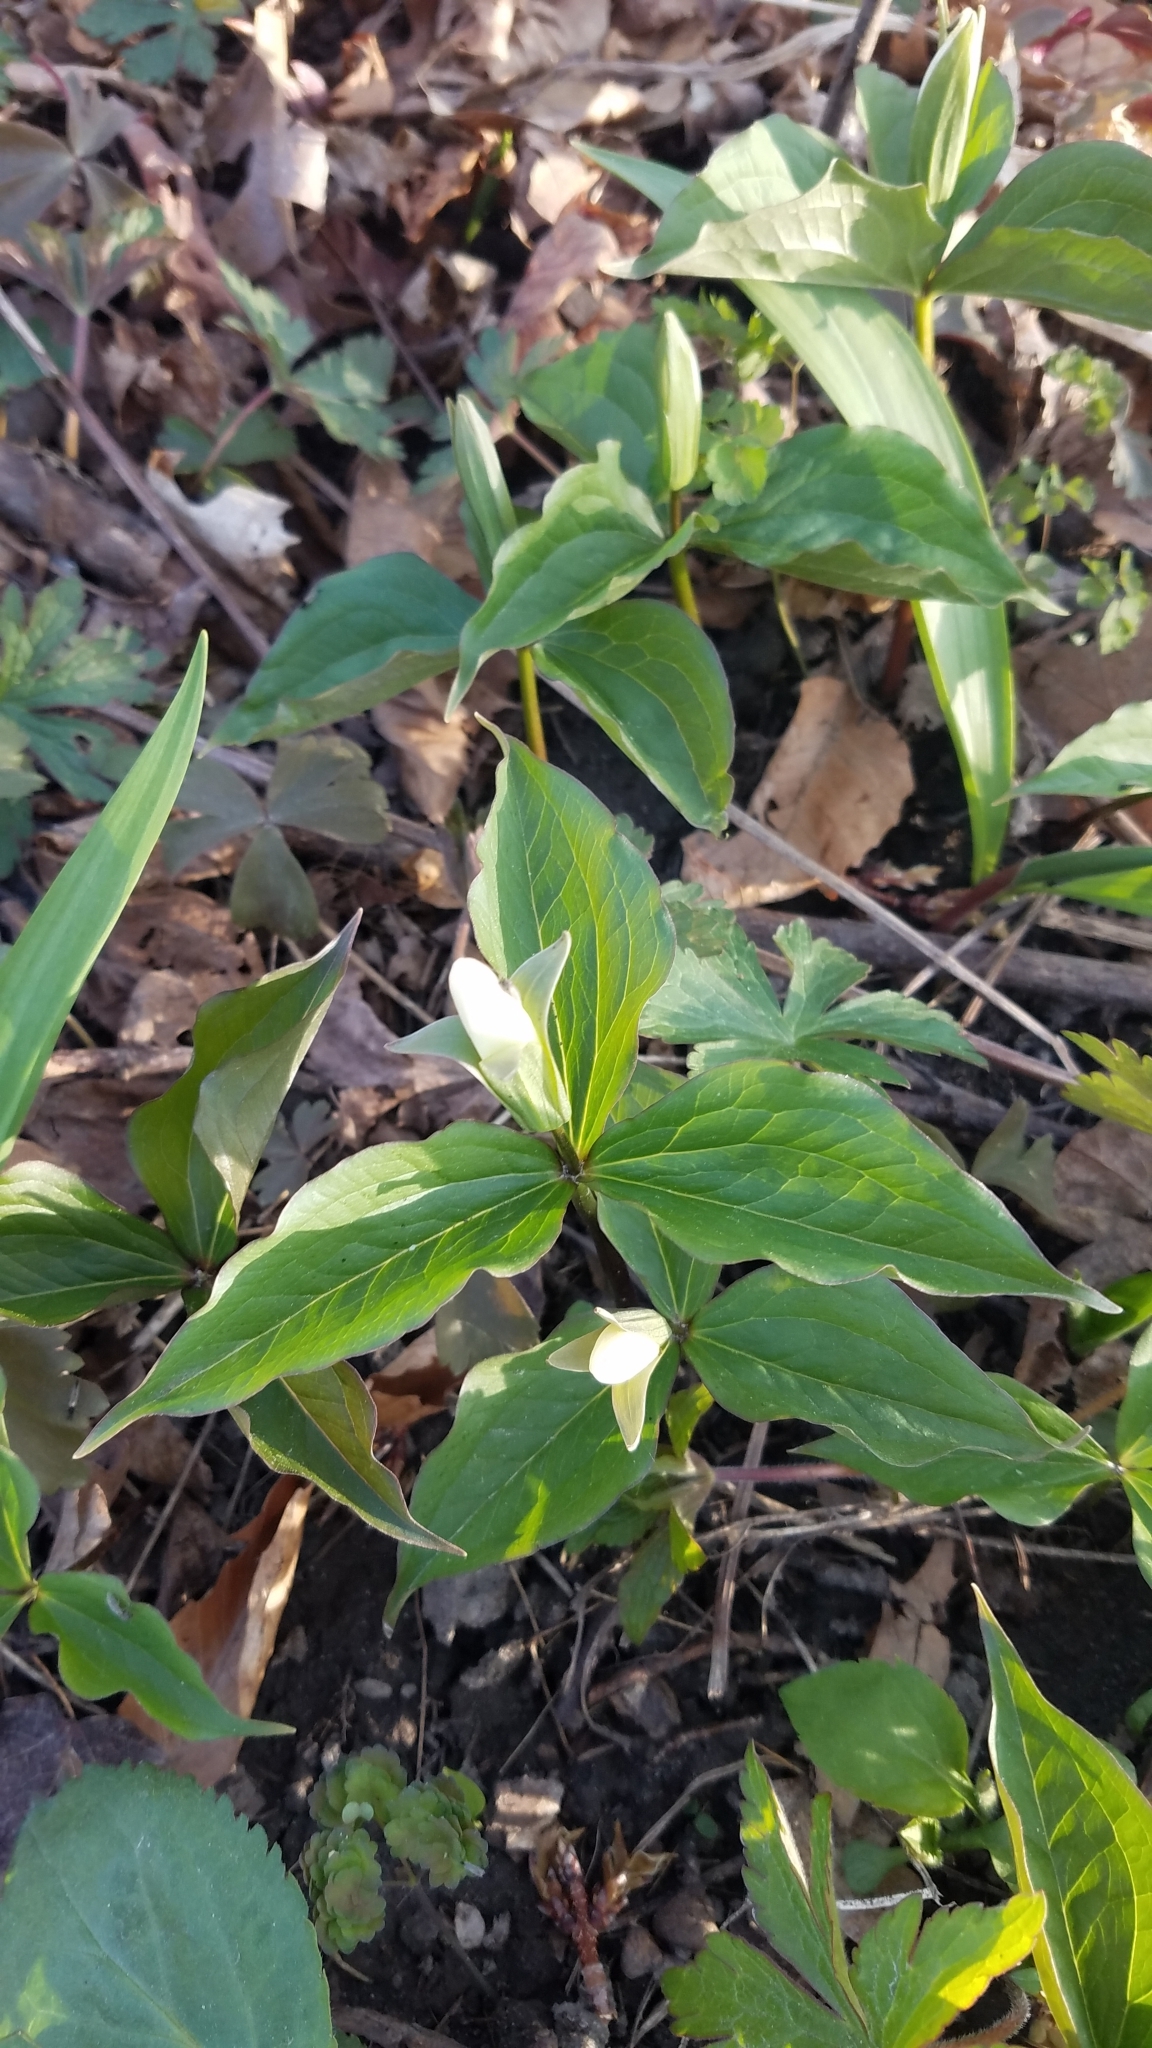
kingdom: Plantae
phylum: Tracheophyta
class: Liliopsida
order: Liliales
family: Melanthiaceae
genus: Trillium
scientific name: Trillium grandiflorum
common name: Great white trillium
